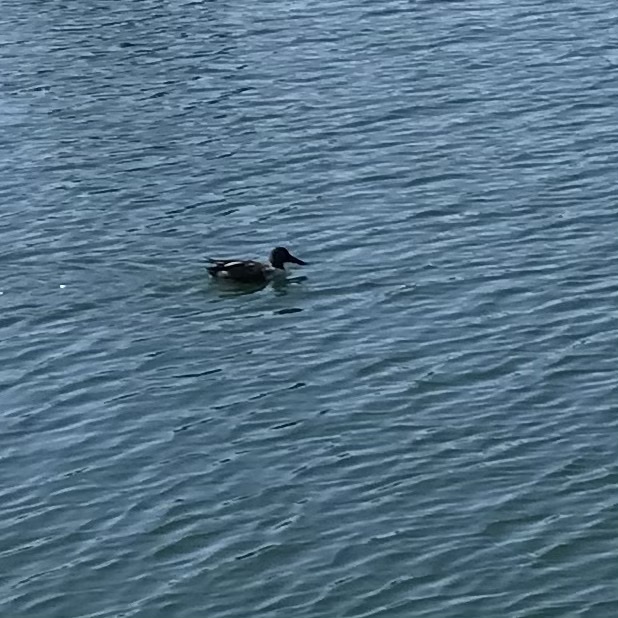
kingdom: Animalia
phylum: Chordata
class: Aves
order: Anseriformes
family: Anatidae
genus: Spatula
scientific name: Spatula clypeata
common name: Northern shoveler
